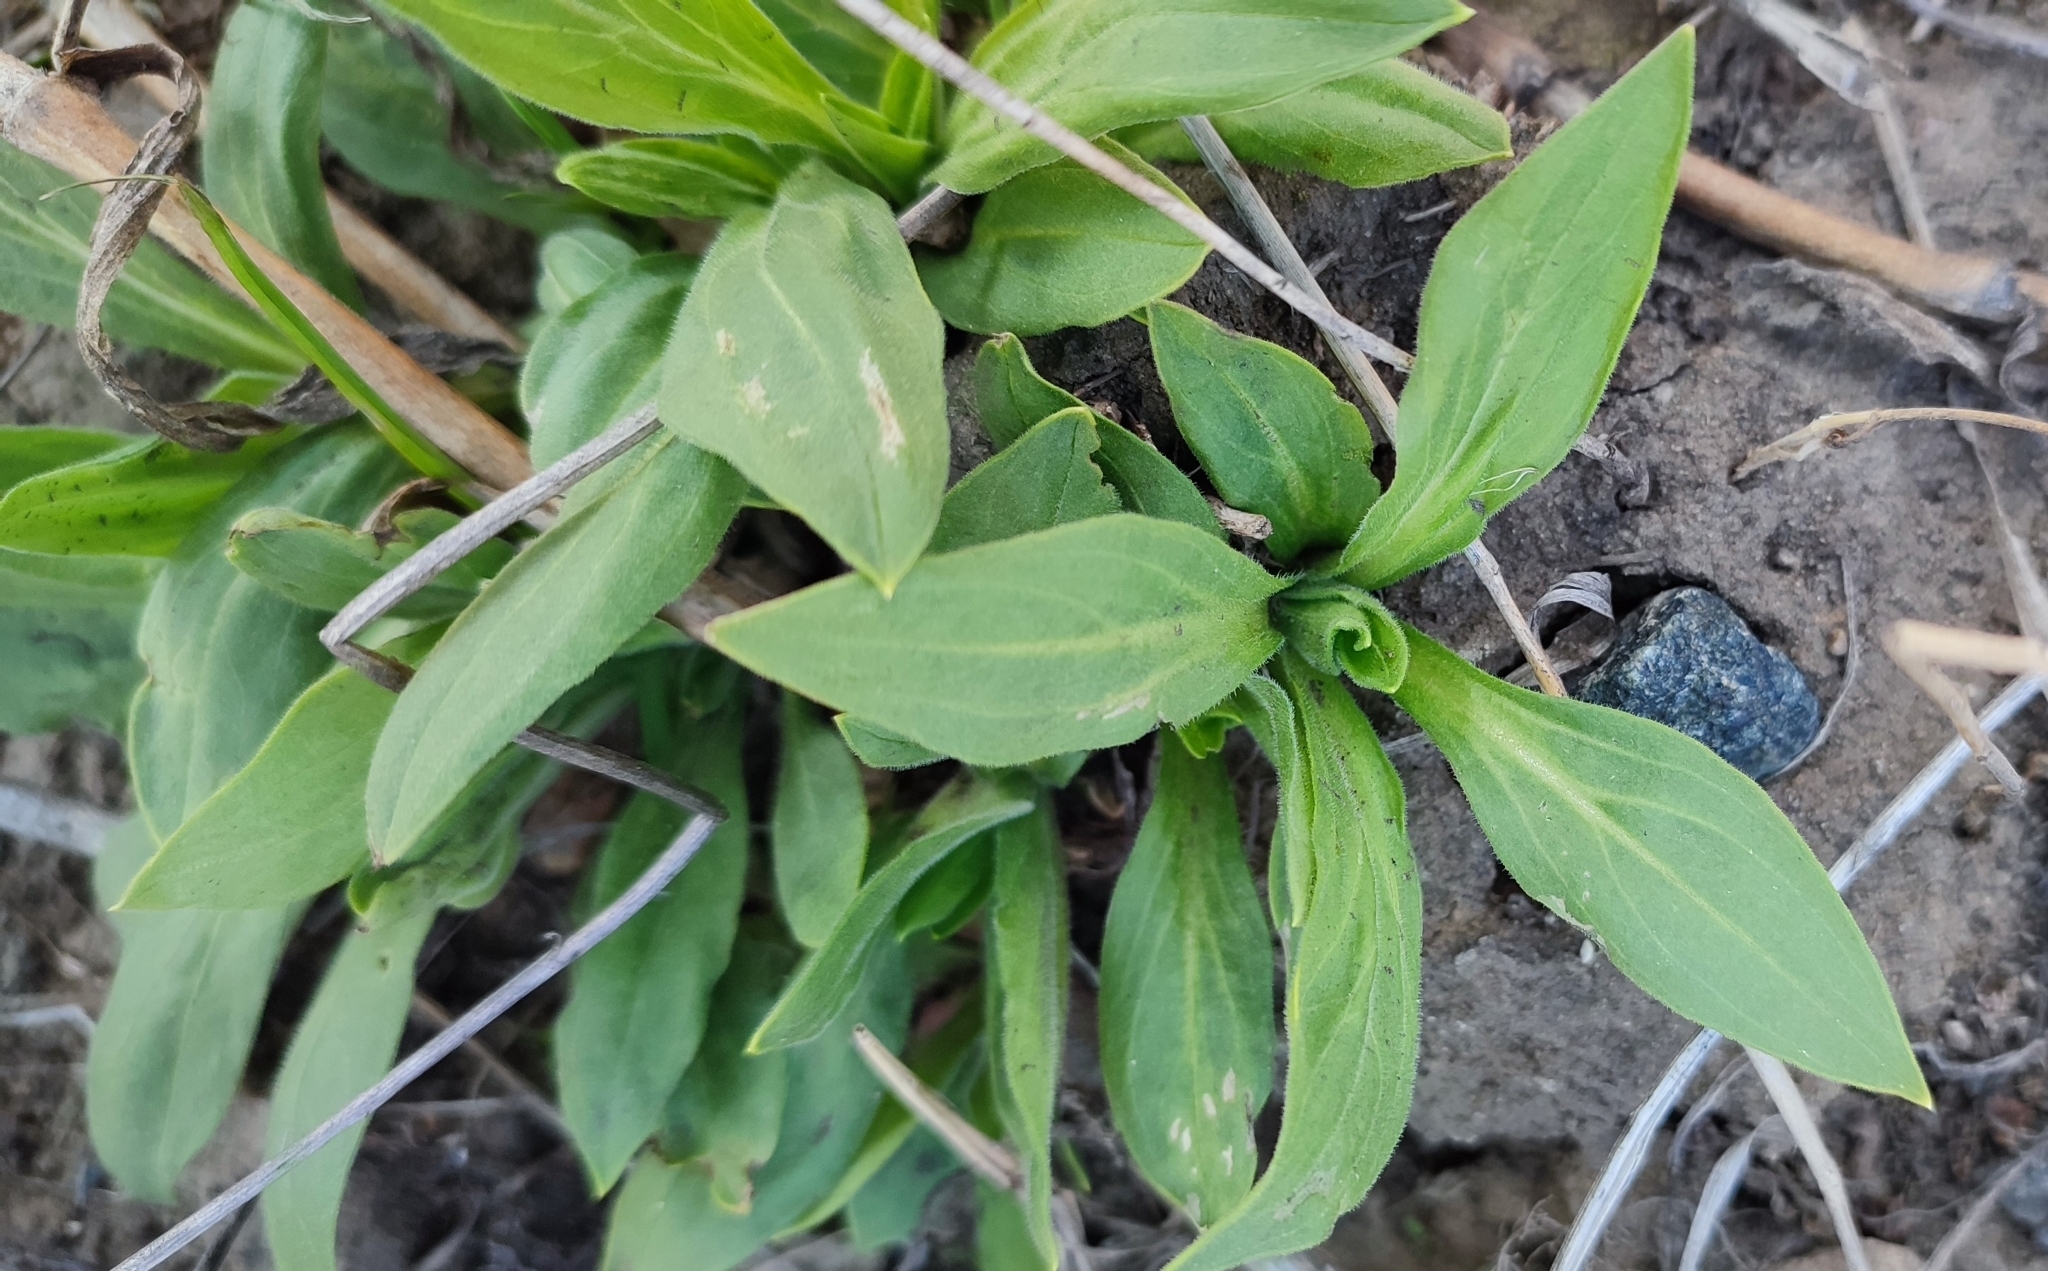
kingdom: Plantae
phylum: Tracheophyta
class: Magnoliopsida
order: Caryophyllales
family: Caryophyllaceae
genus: Silene
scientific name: Silene latifolia
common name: White campion
